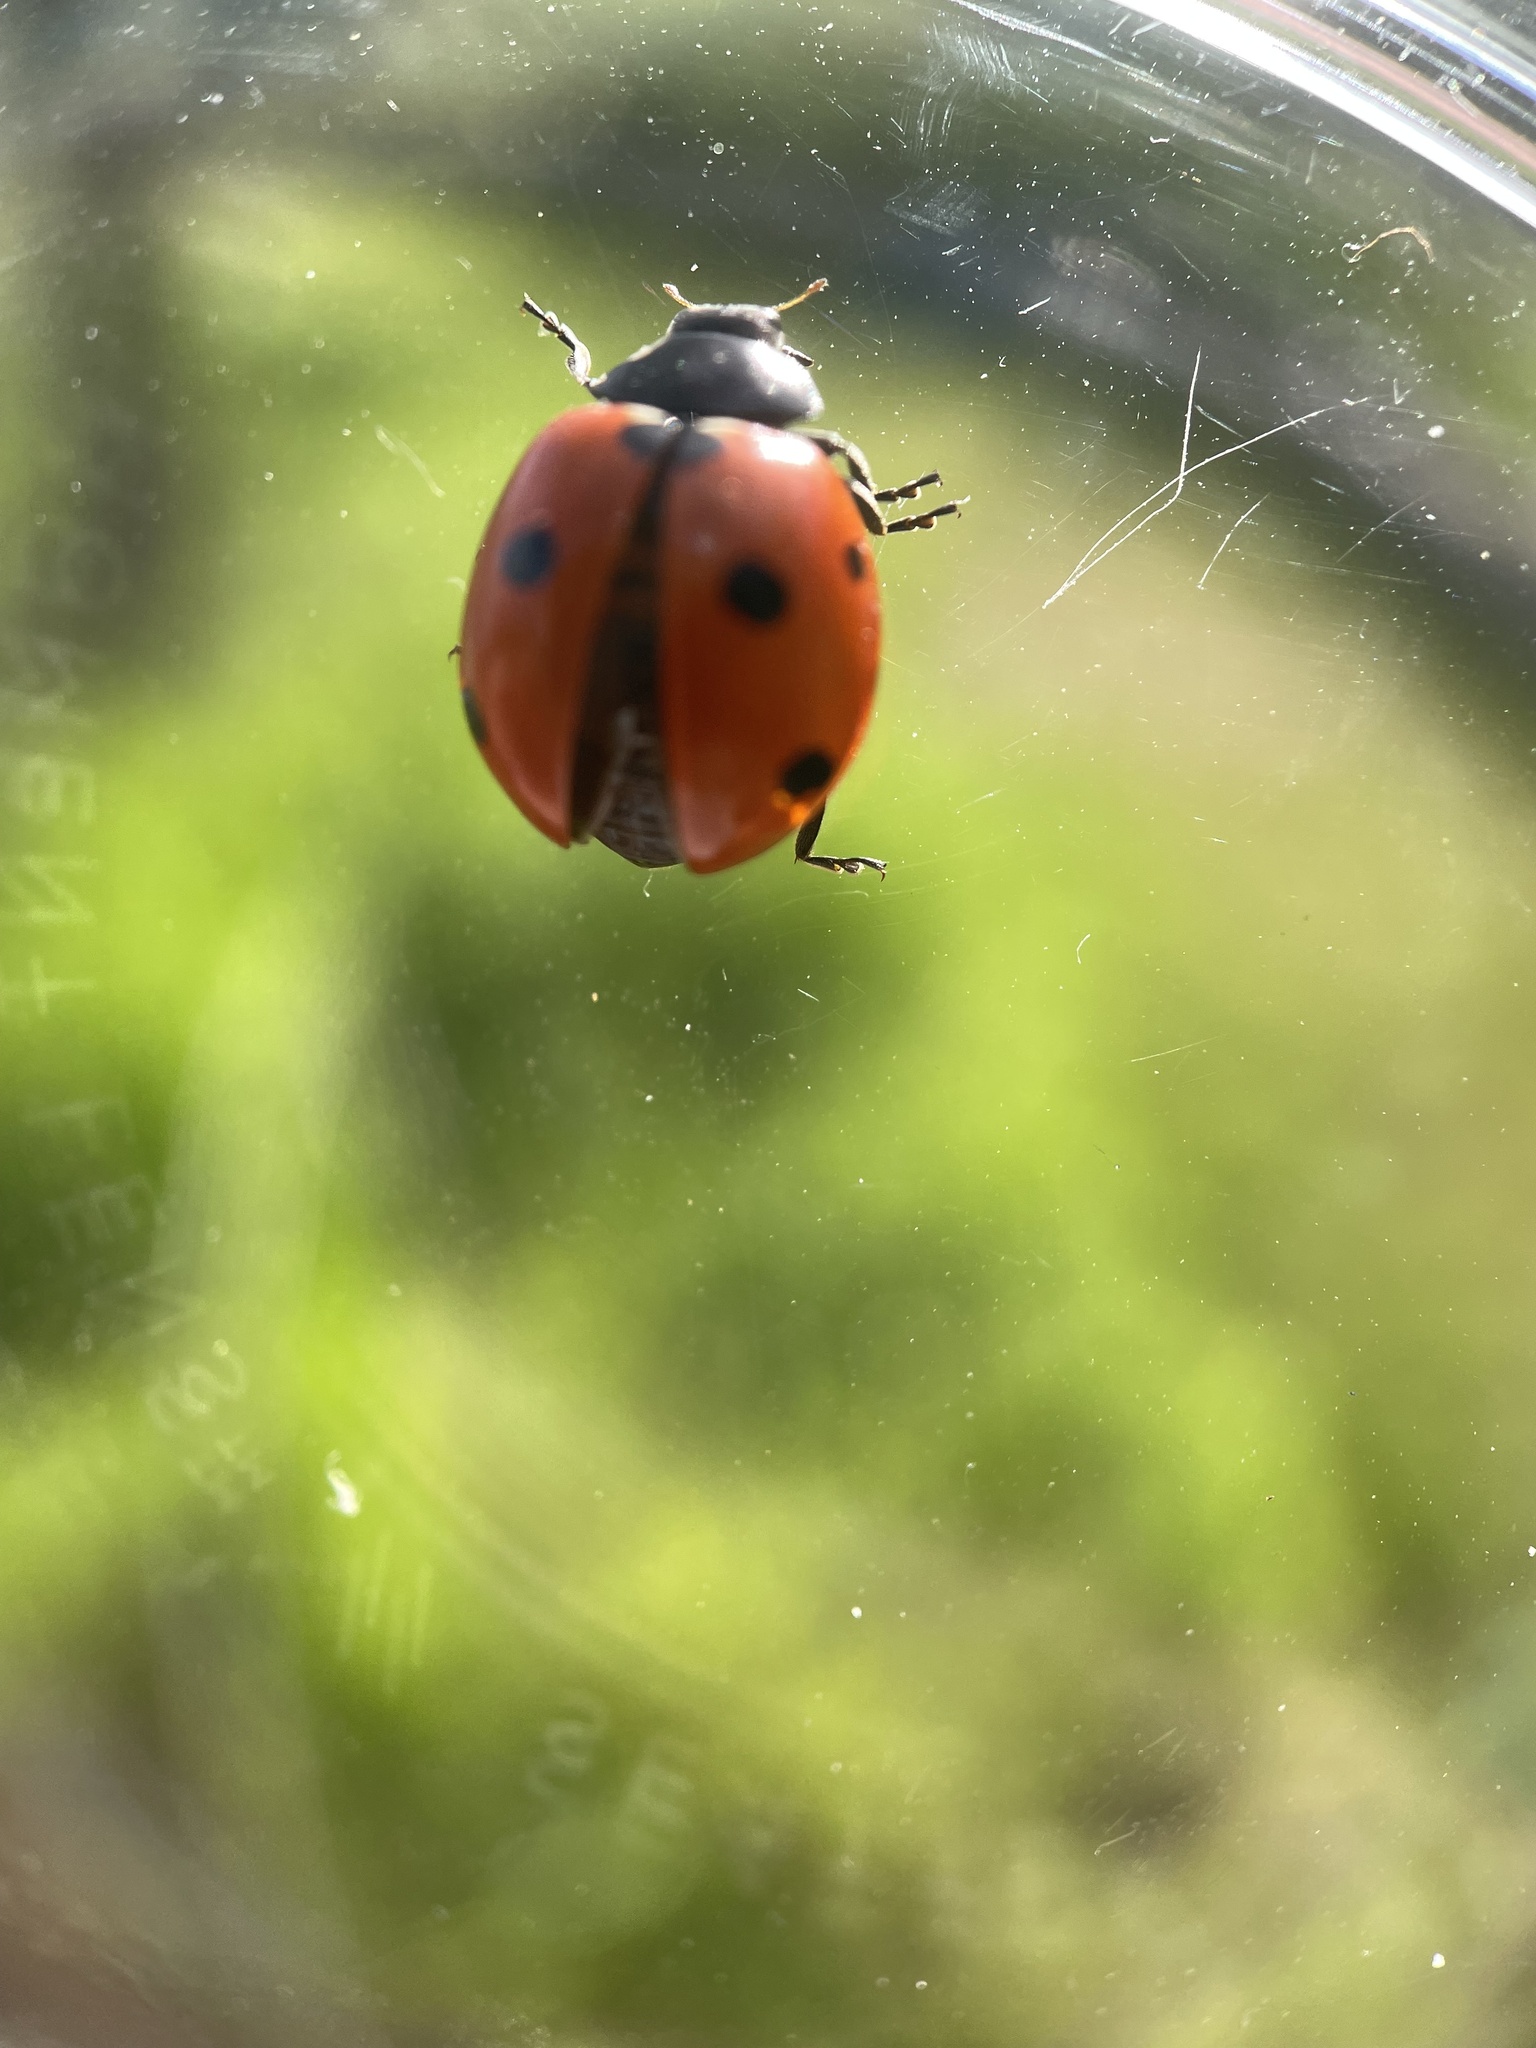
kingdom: Animalia
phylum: Arthropoda
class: Insecta
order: Coleoptera
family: Coccinellidae
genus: Coccinella
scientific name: Coccinella septempunctata
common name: Sevenspotted lady beetle
